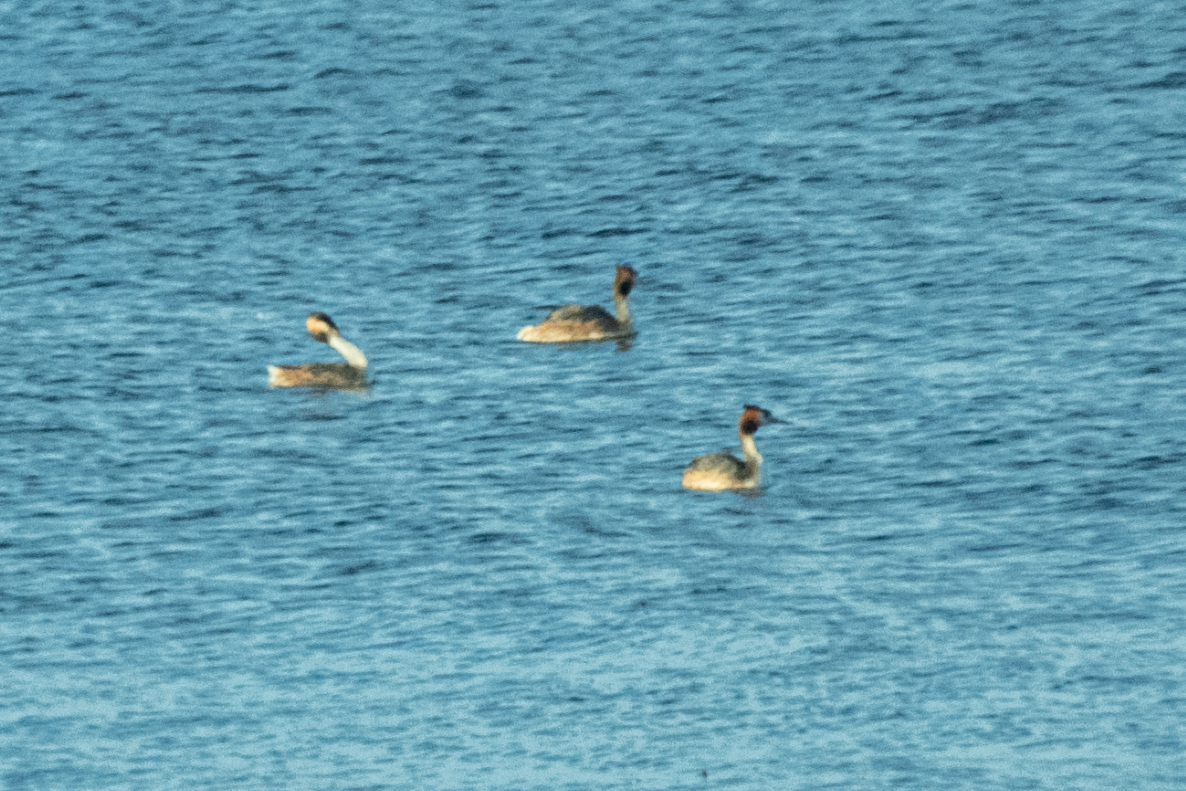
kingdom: Animalia
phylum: Chordata
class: Aves
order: Podicipediformes
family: Podicipedidae
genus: Podiceps
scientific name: Podiceps cristatus
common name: Great crested grebe
